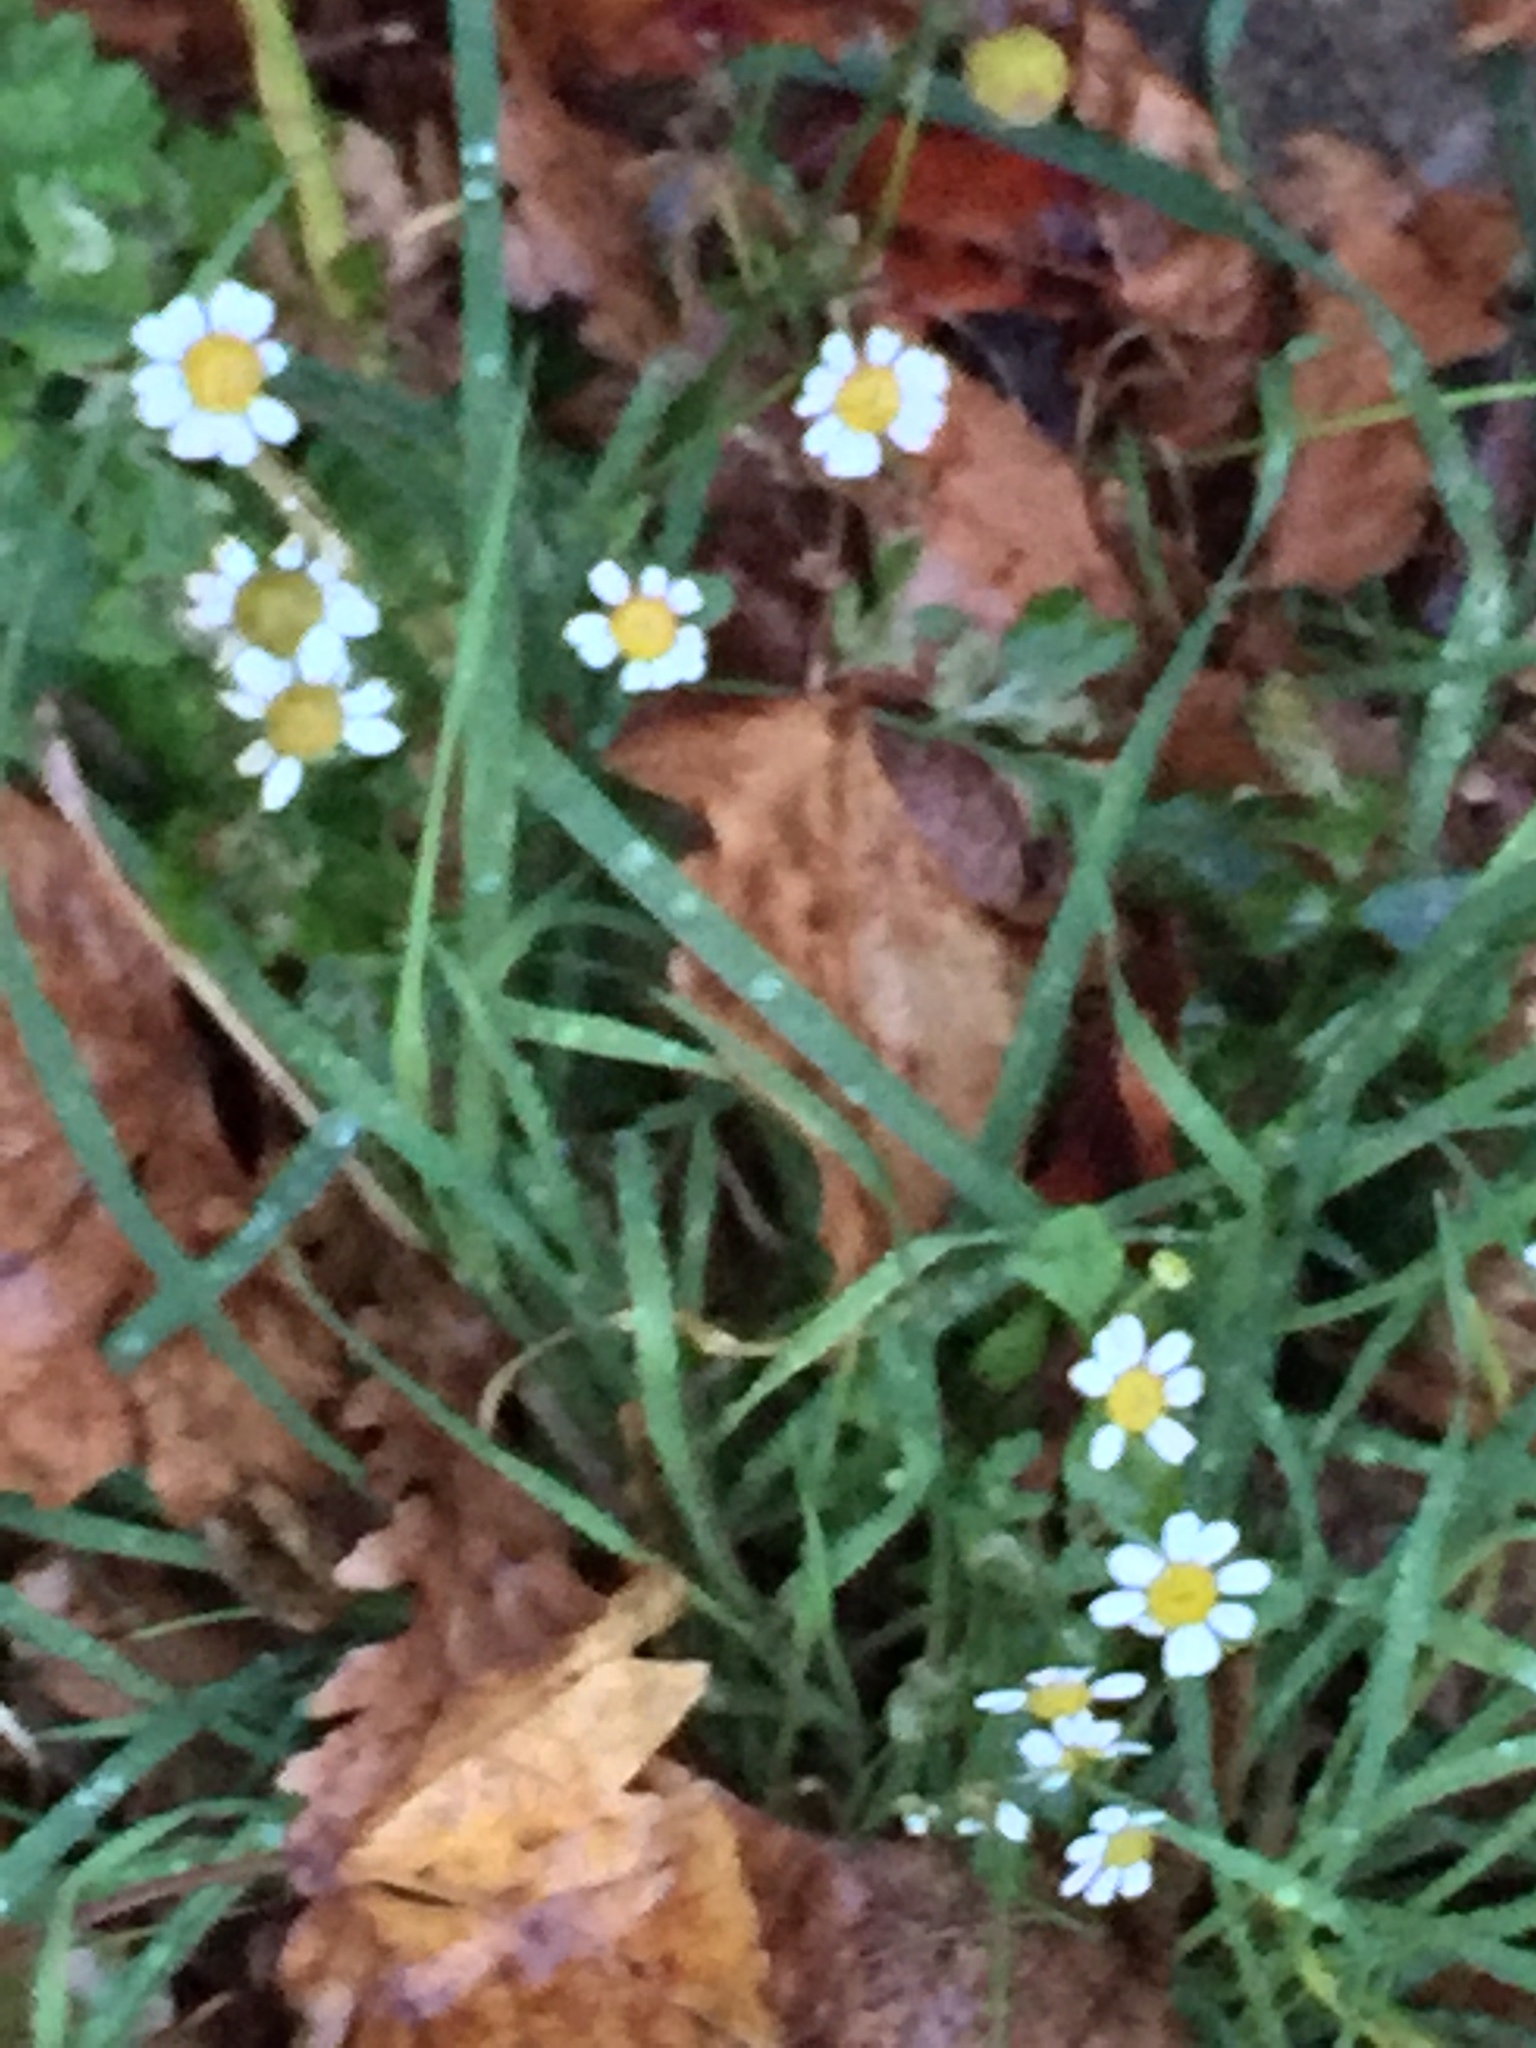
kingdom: Plantae
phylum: Tracheophyta
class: Magnoliopsida
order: Asterales
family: Asteraceae
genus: Tanacetum
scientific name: Tanacetum parthenium
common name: Feverfew
